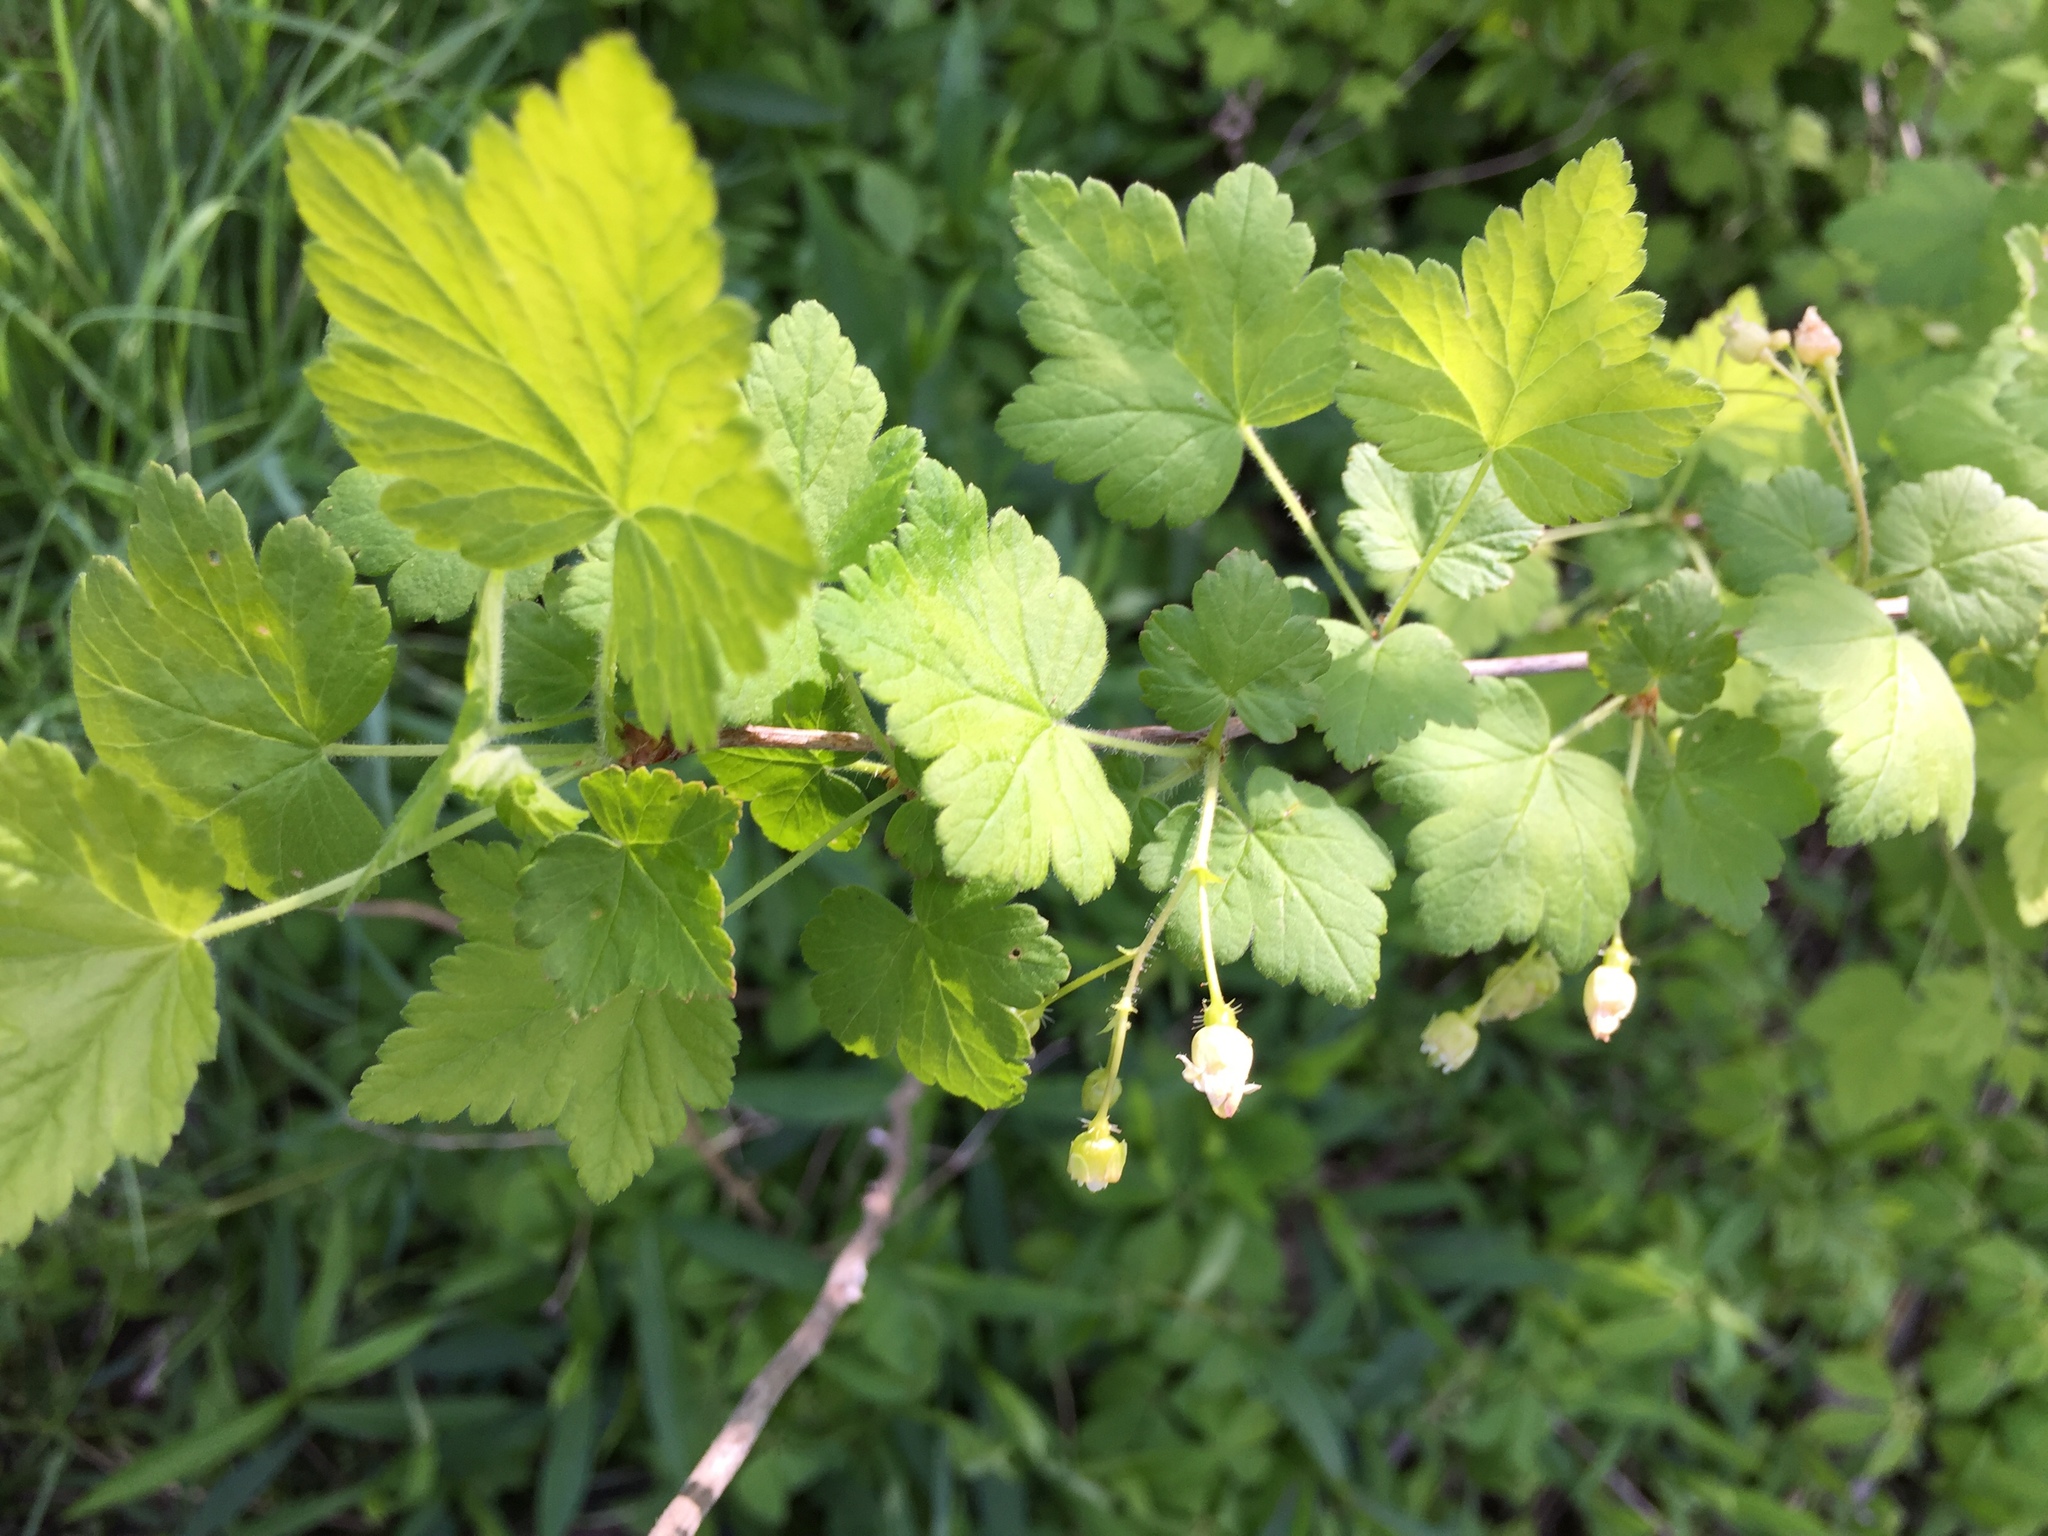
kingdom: Plantae
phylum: Tracheophyta
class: Magnoliopsida
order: Saxifragales
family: Grossulariaceae
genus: Ribes
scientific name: Ribes cynosbati
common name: American gooseberry
